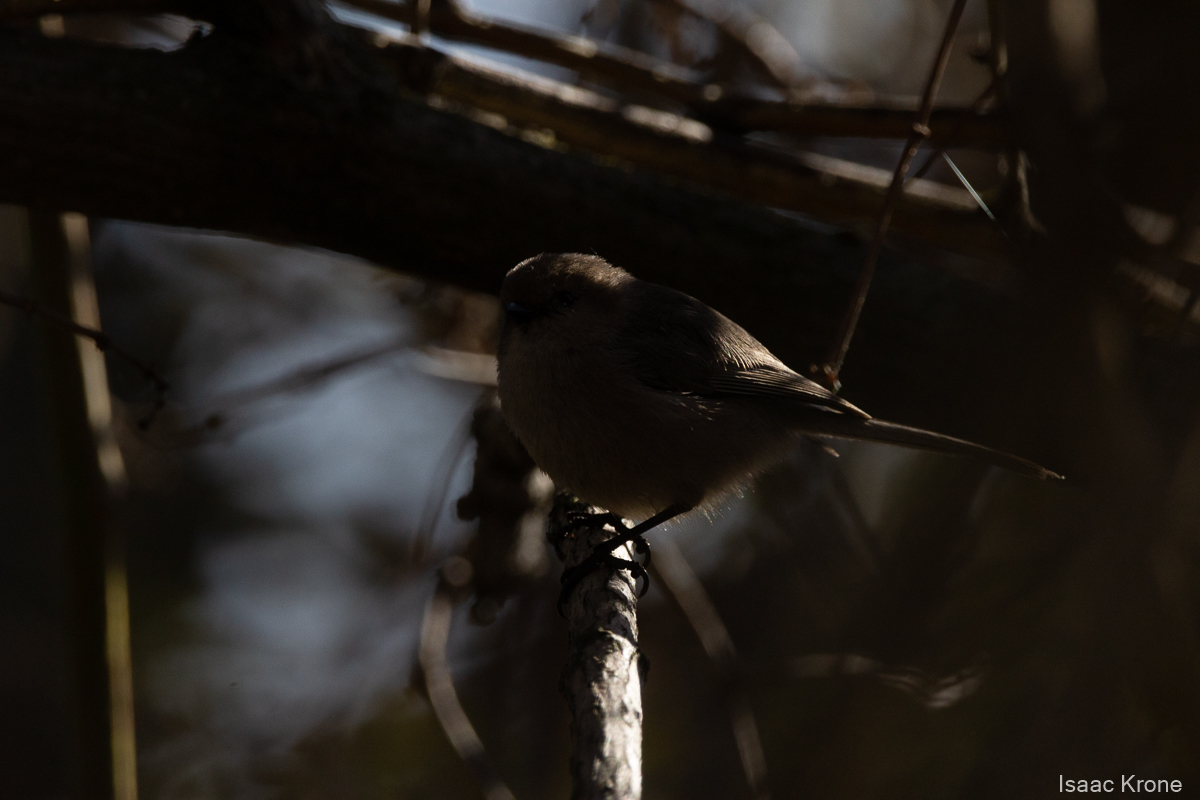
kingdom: Animalia
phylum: Chordata
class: Aves
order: Passeriformes
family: Aegithalidae
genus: Psaltriparus
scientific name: Psaltriparus minimus
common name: American bushtit
